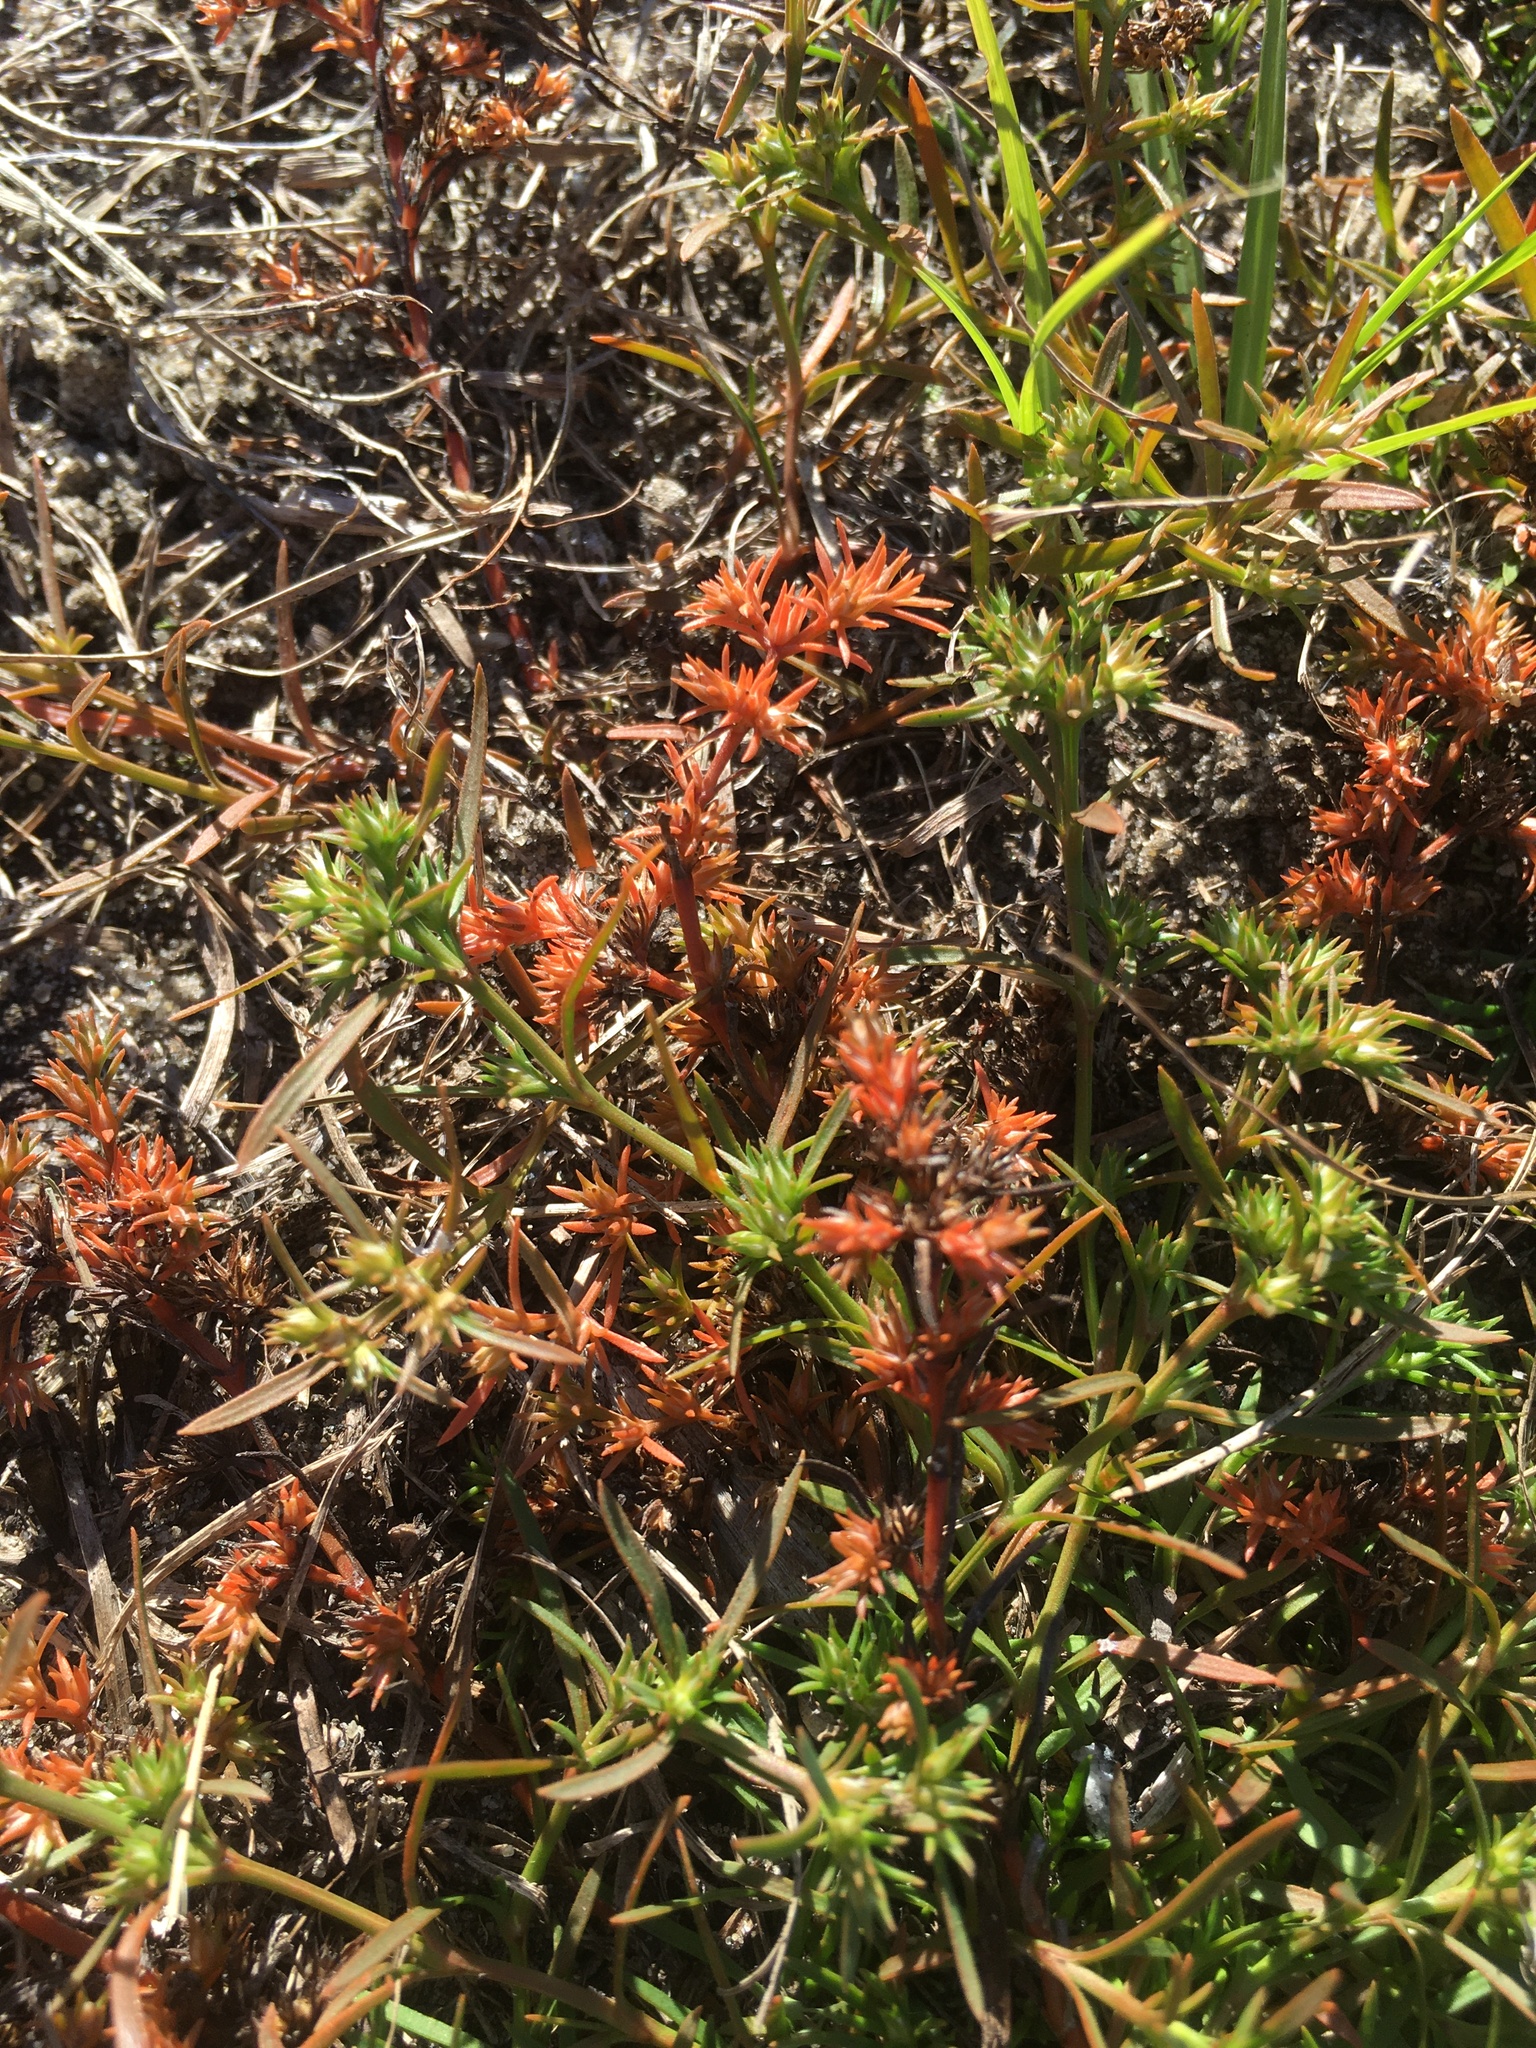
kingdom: Plantae
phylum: Tracheophyta
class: Magnoliopsida
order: Lamiales
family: Tetrachondraceae
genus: Polypremum
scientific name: Polypremum procumbens
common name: Juniper-leaf
